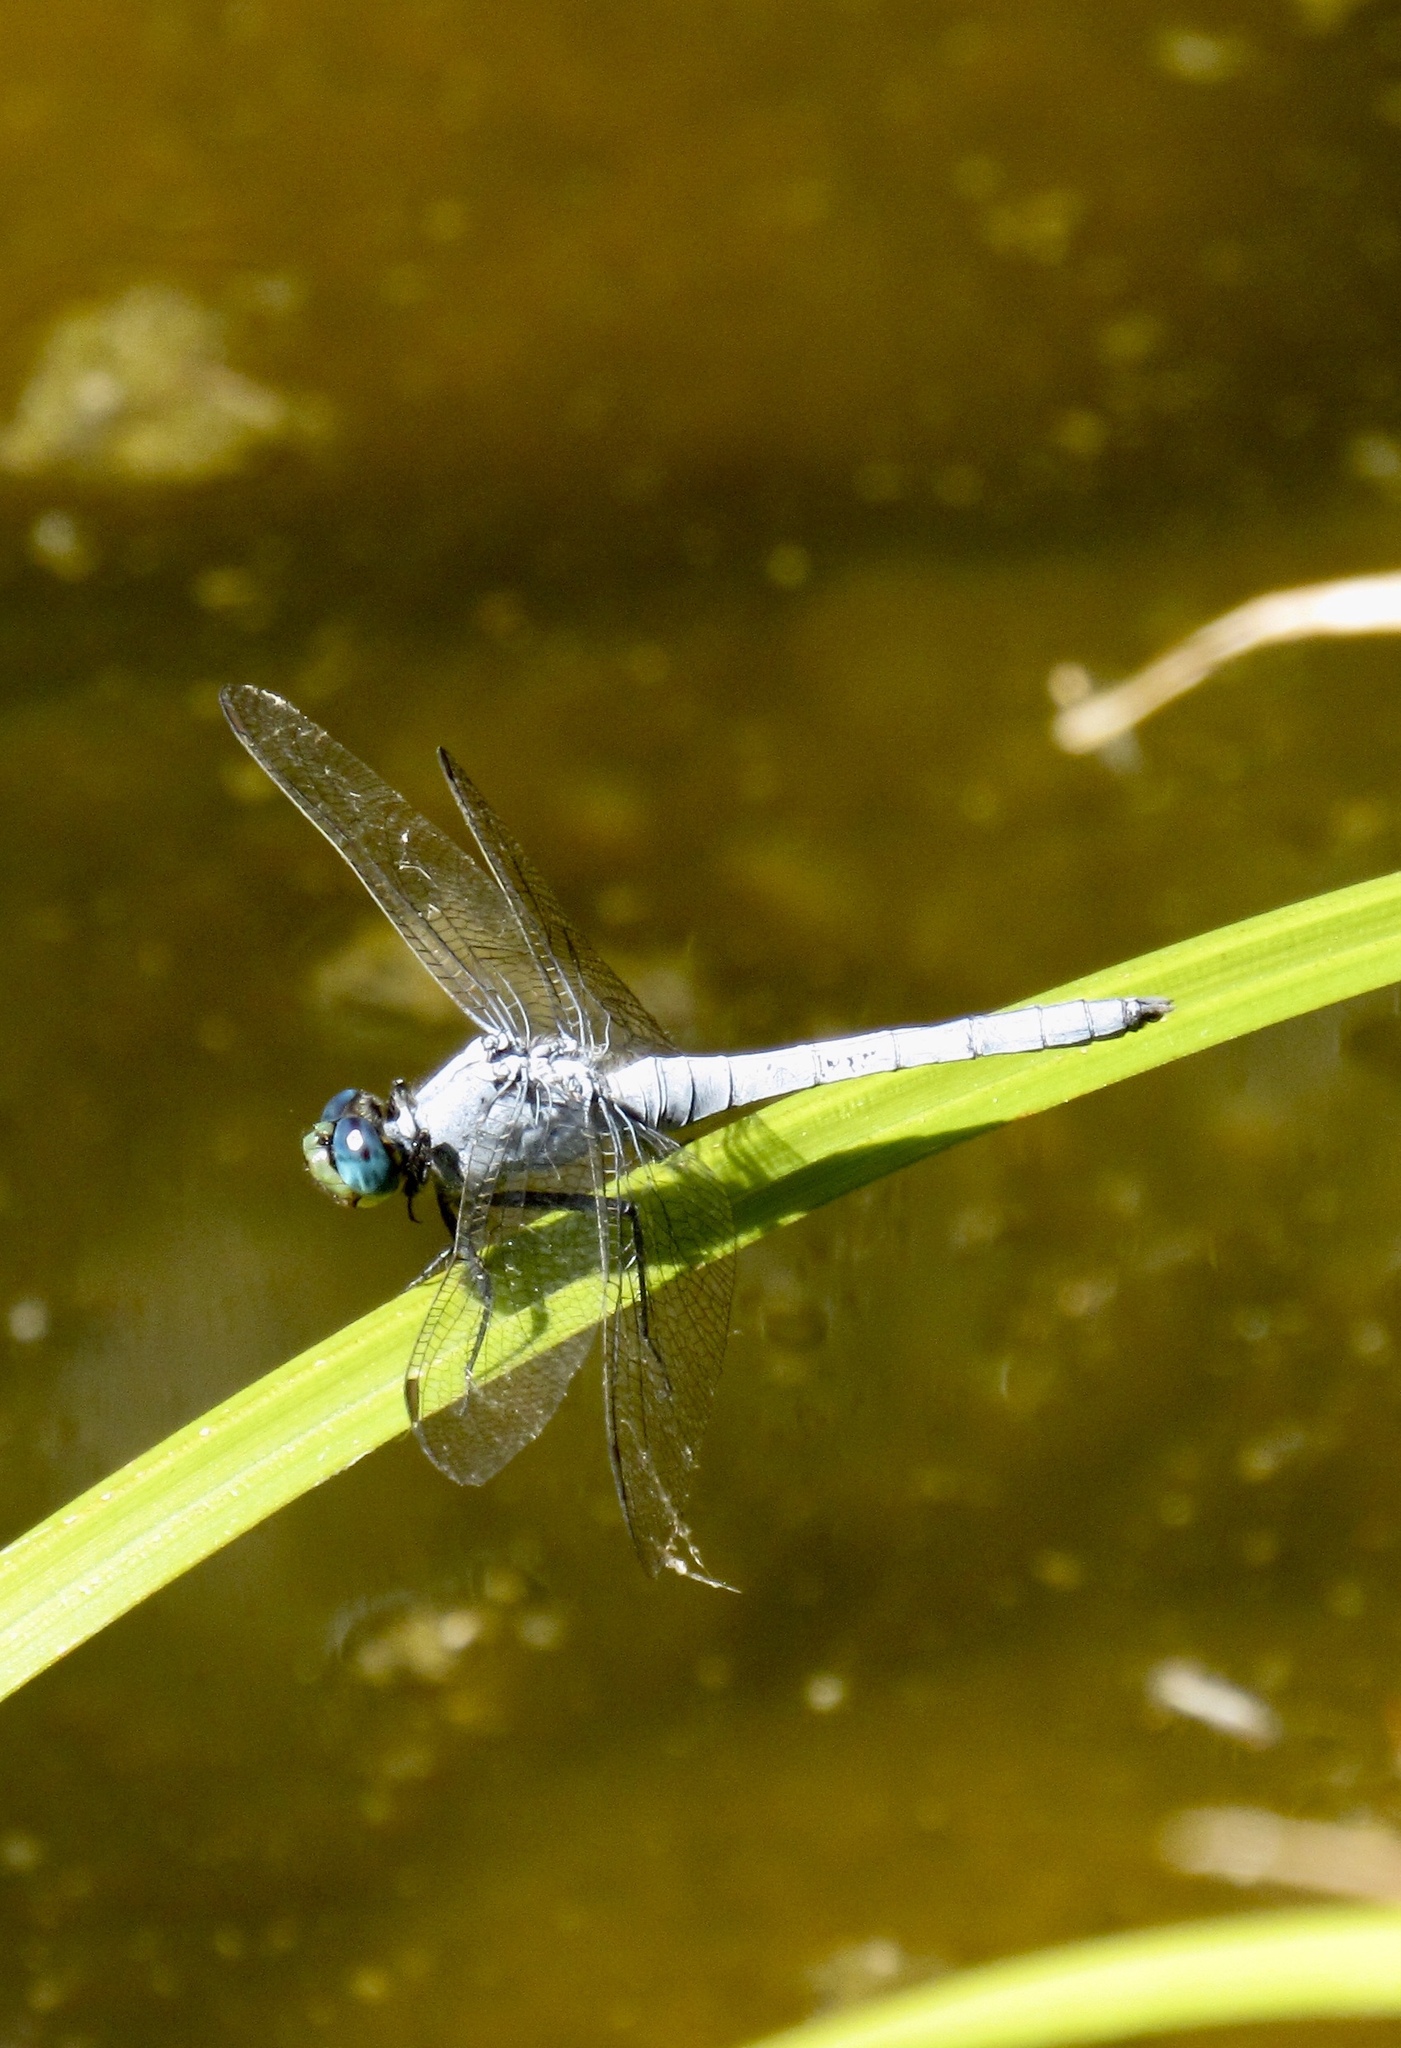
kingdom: Animalia
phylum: Arthropoda
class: Insecta
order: Odonata
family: Libellulidae
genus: Erythemis
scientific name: Erythemis collocata
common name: Western pondhawk
